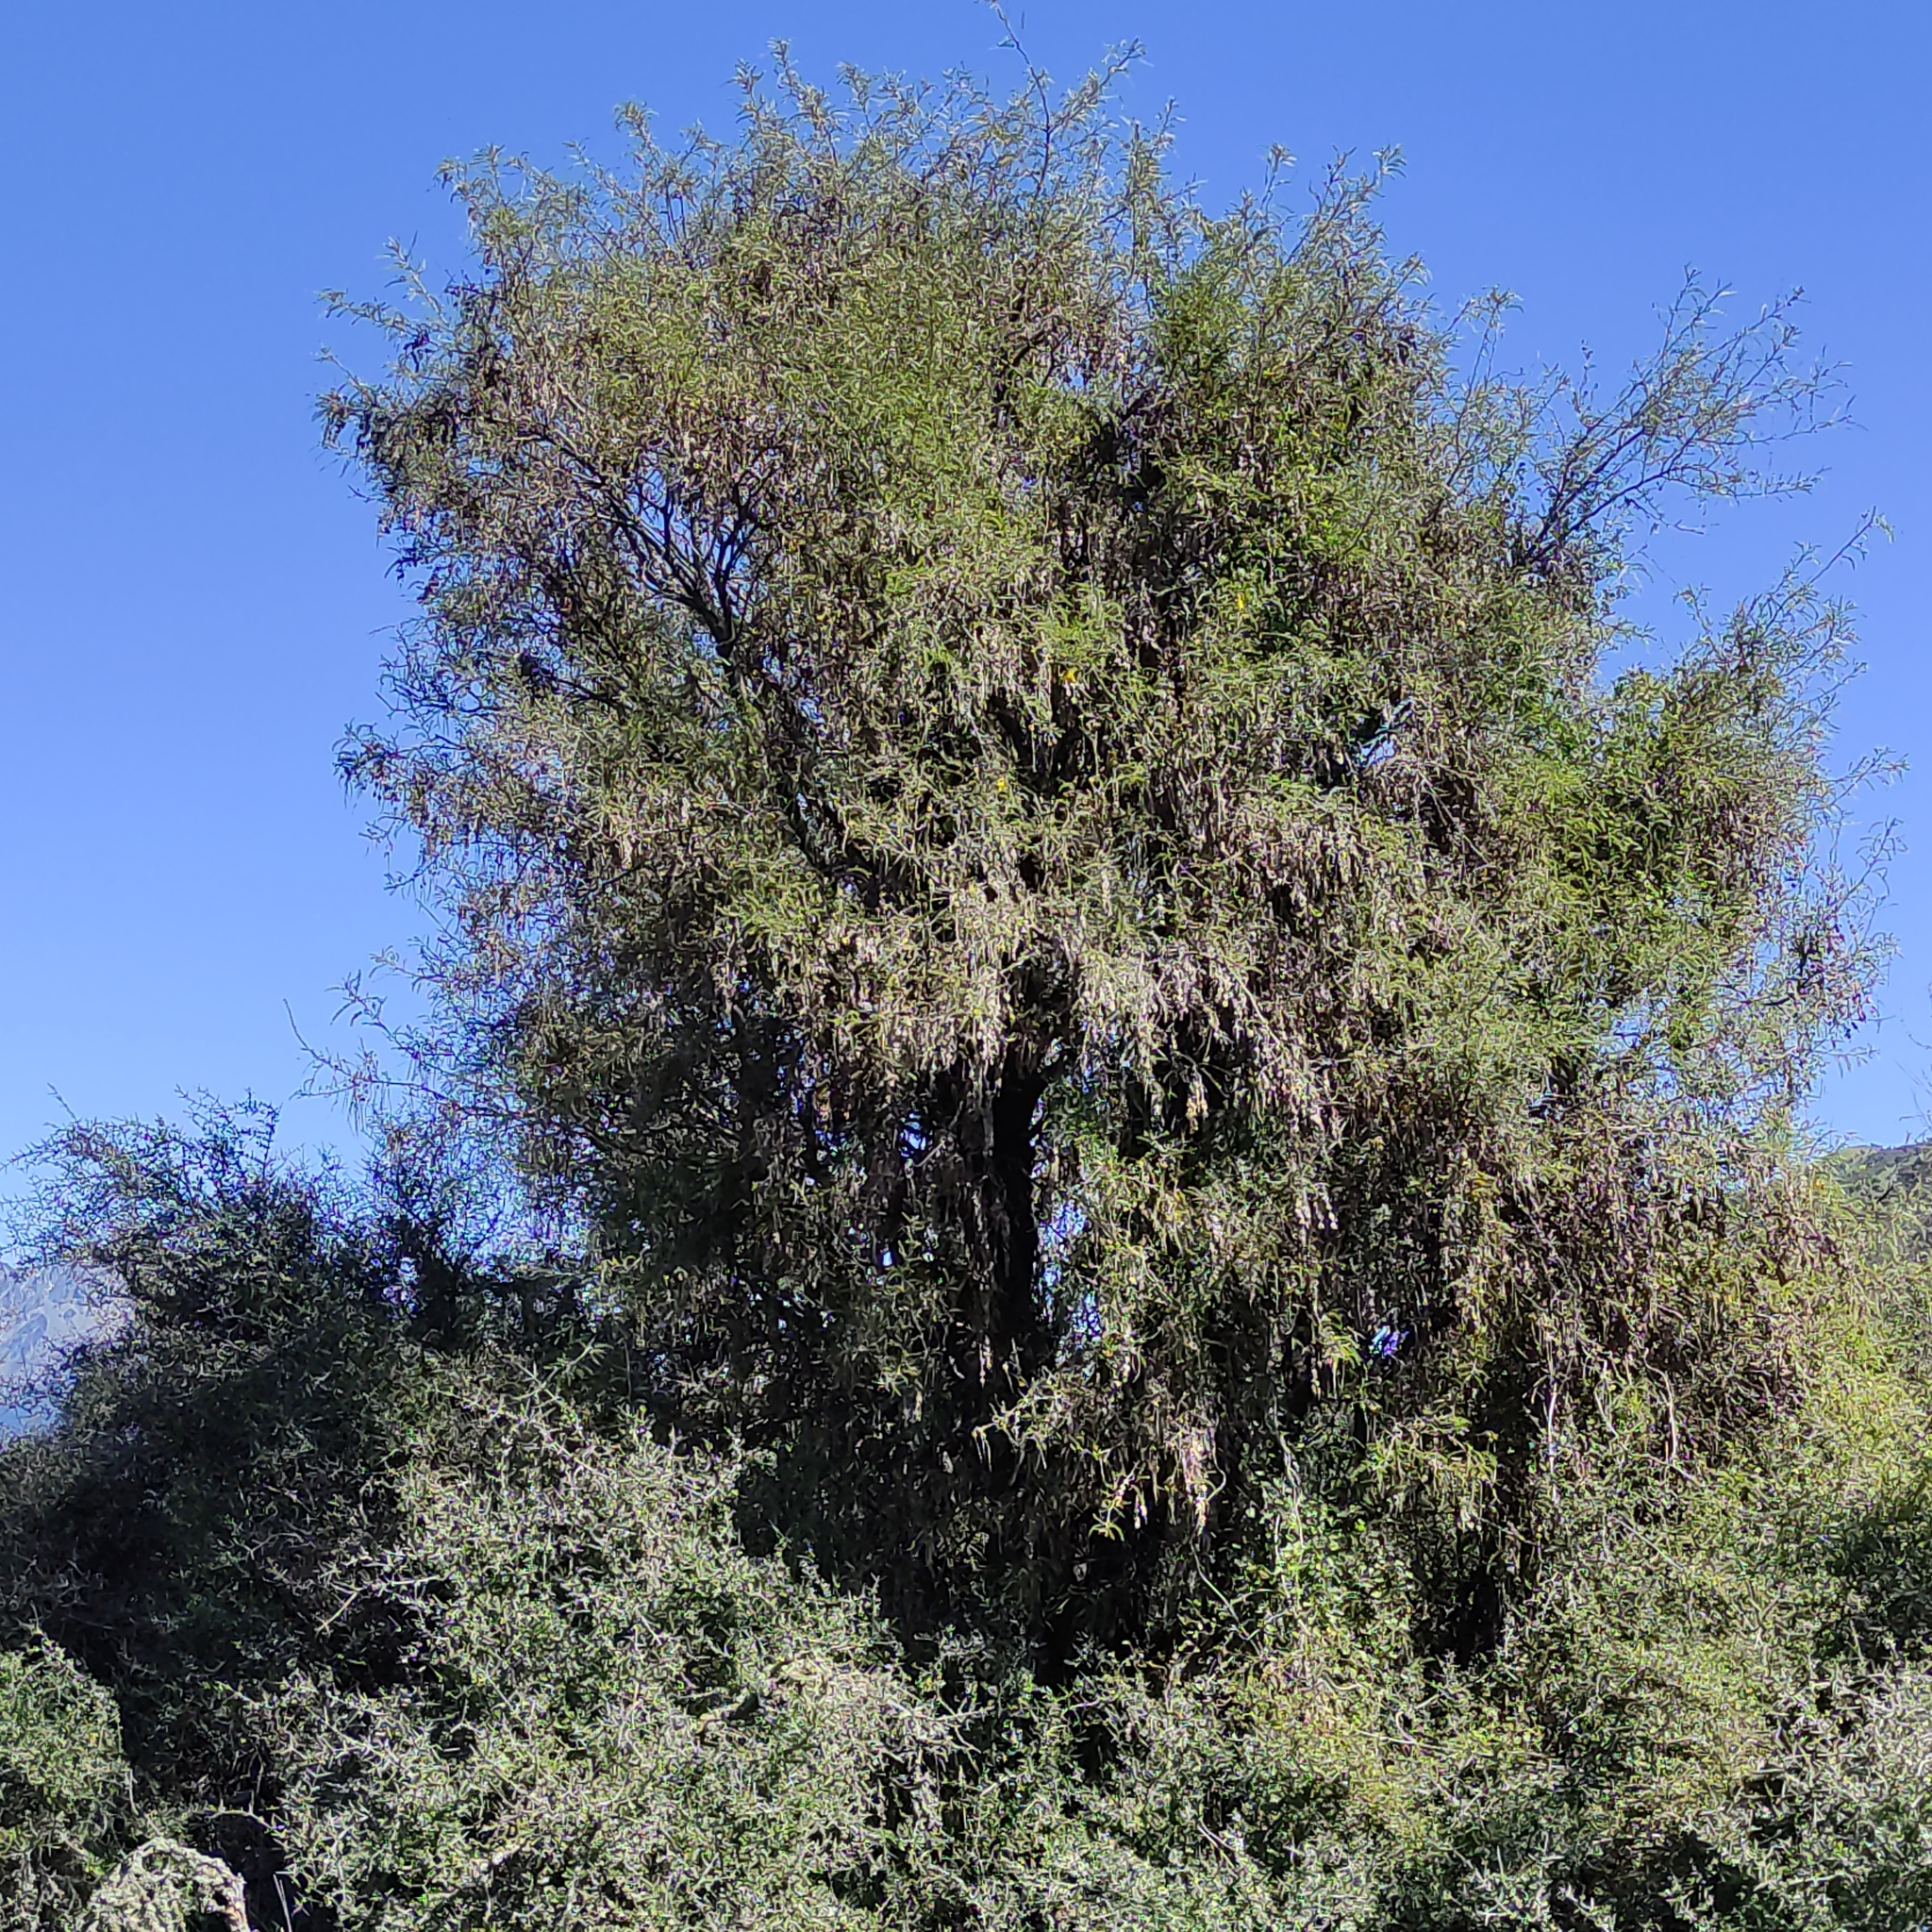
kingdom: Plantae
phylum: Tracheophyta
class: Magnoliopsida
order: Fabales
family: Fabaceae
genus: Sophora
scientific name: Sophora microphylla
